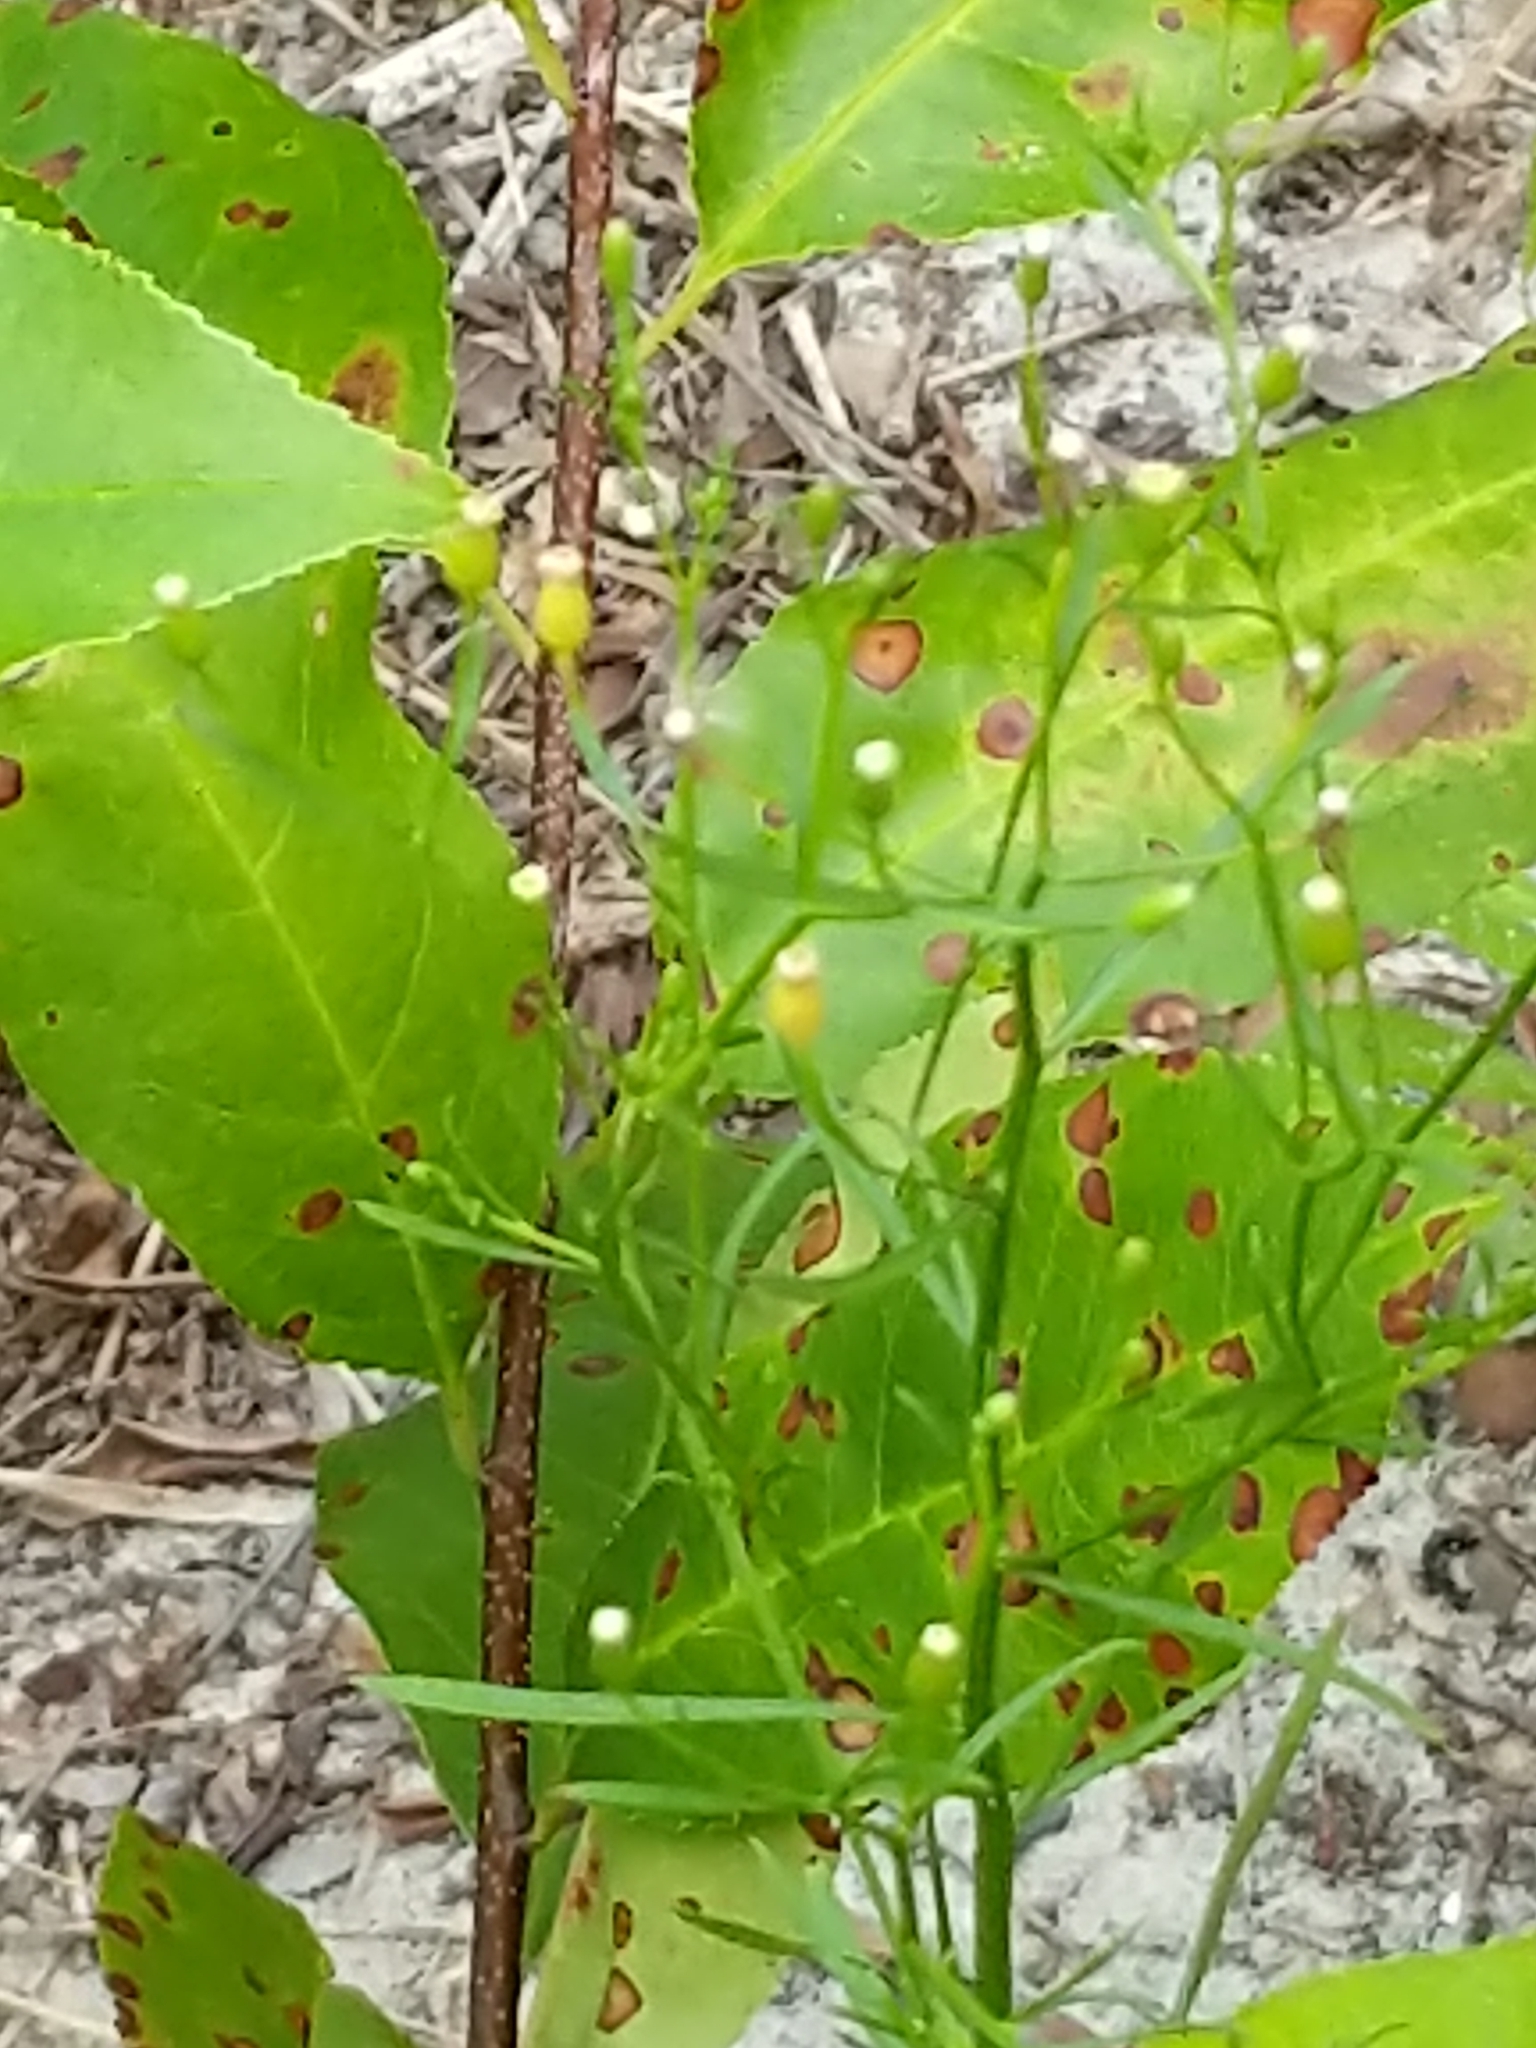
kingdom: Plantae
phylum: Tracheophyta
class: Magnoliopsida
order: Asterales
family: Asteraceae
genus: Erigeron
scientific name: Erigeron canadensis
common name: Canadian fleabane
